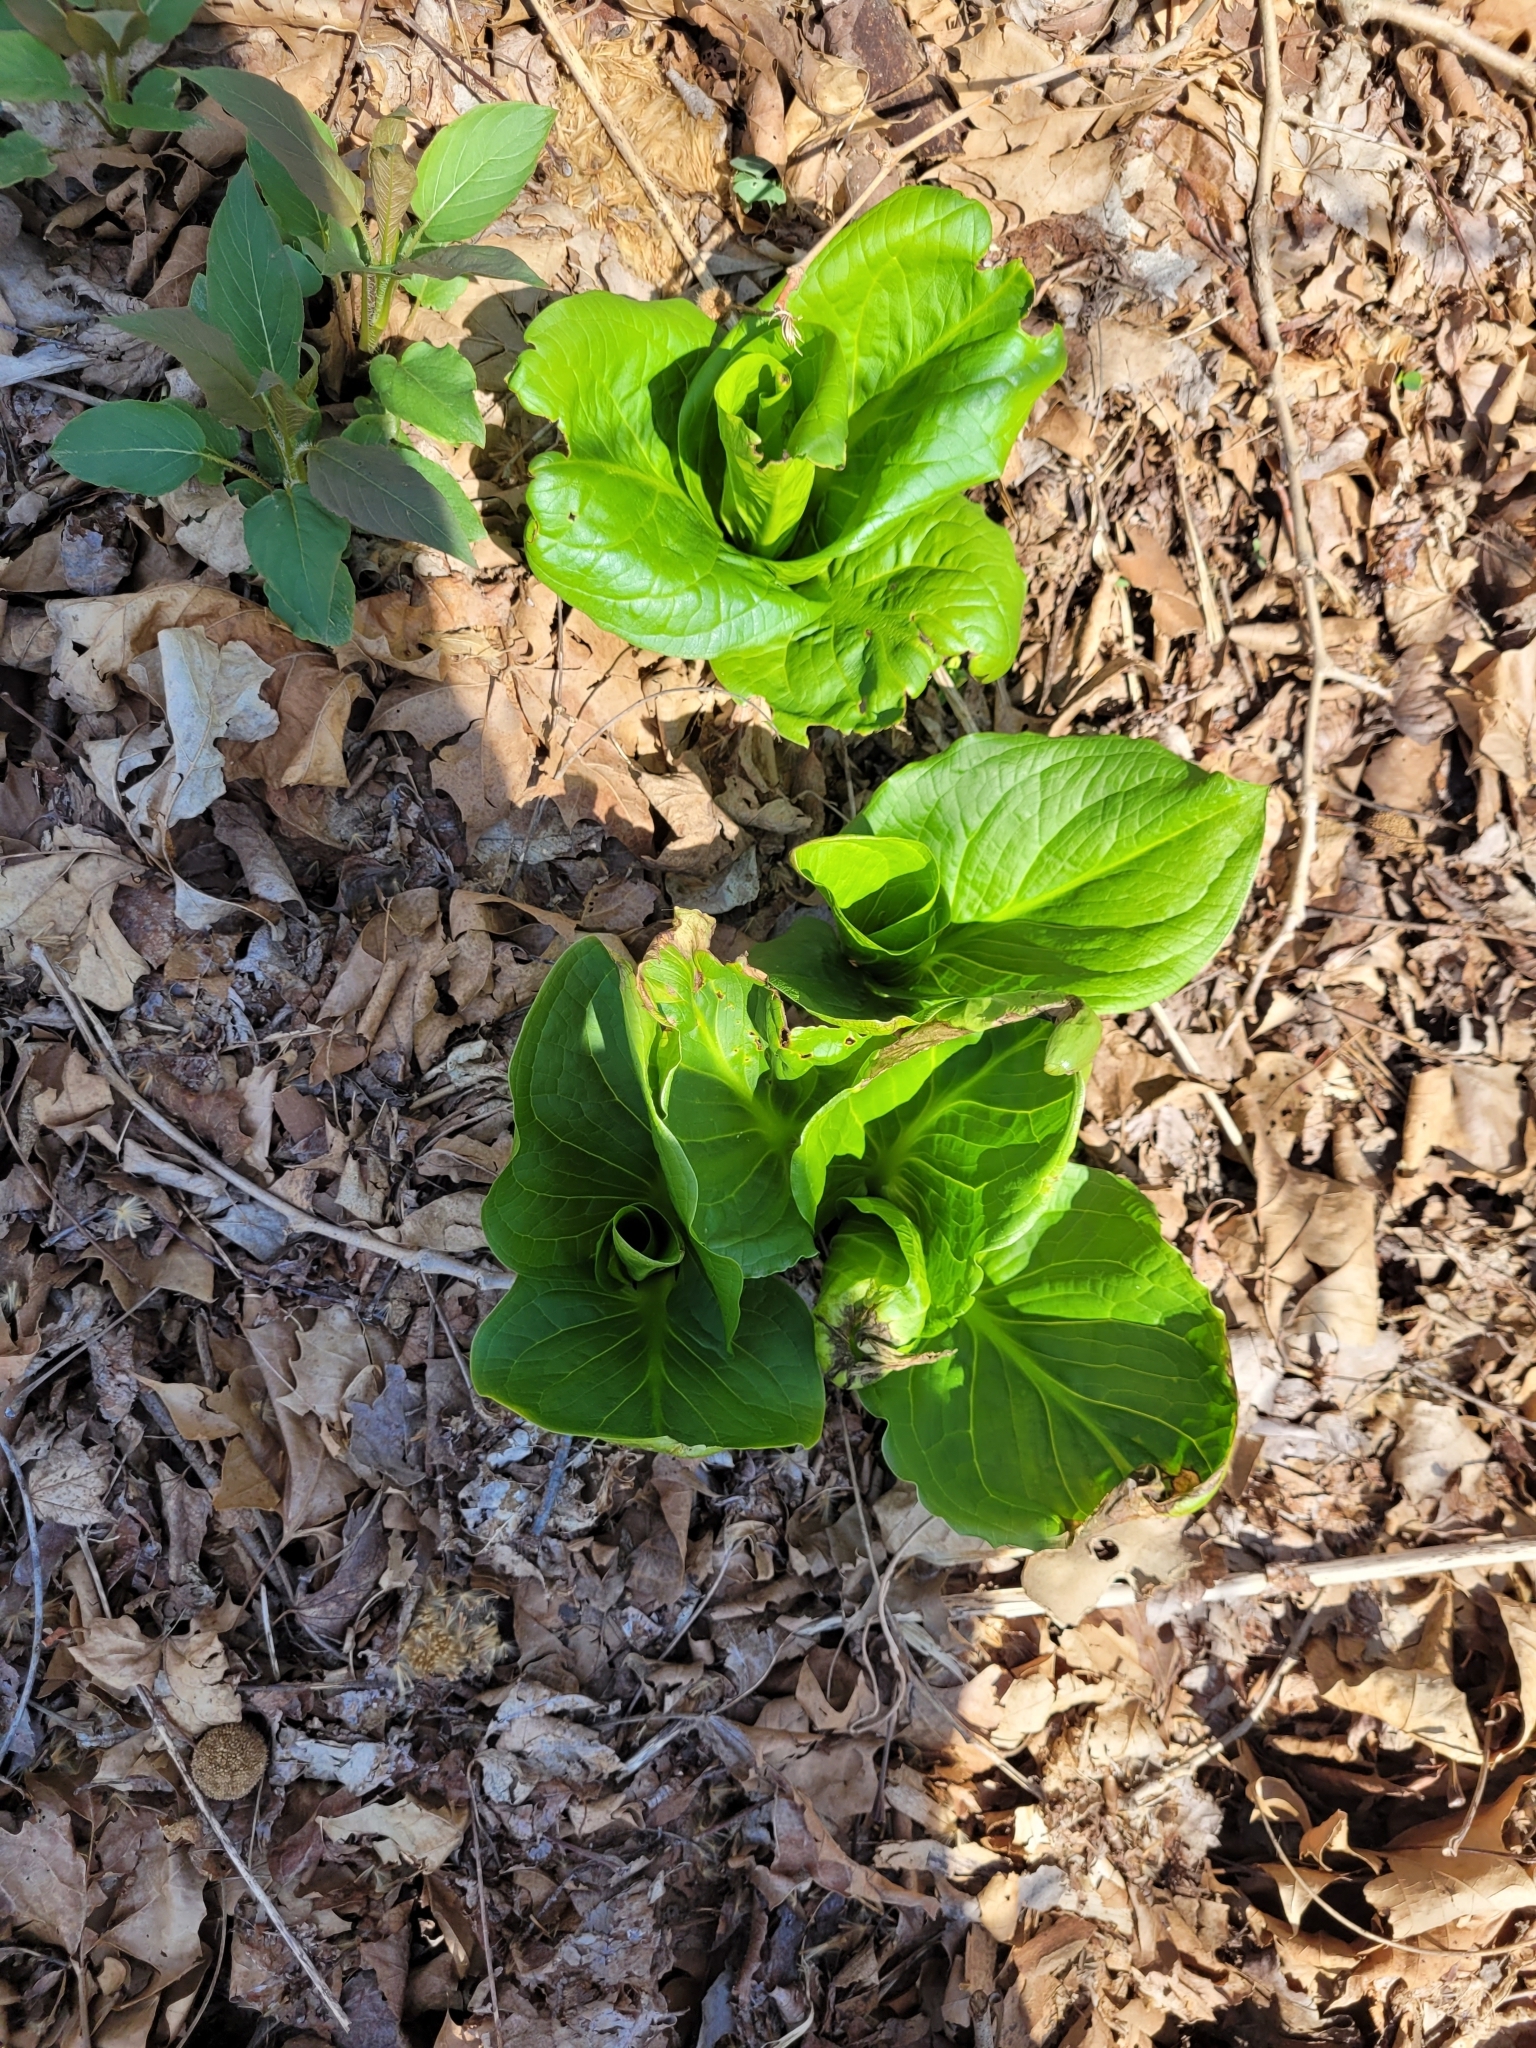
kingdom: Plantae
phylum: Tracheophyta
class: Liliopsida
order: Alismatales
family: Araceae
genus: Symplocarpus
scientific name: Symplocarpus foetidus
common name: Eastern skunk cabbage
